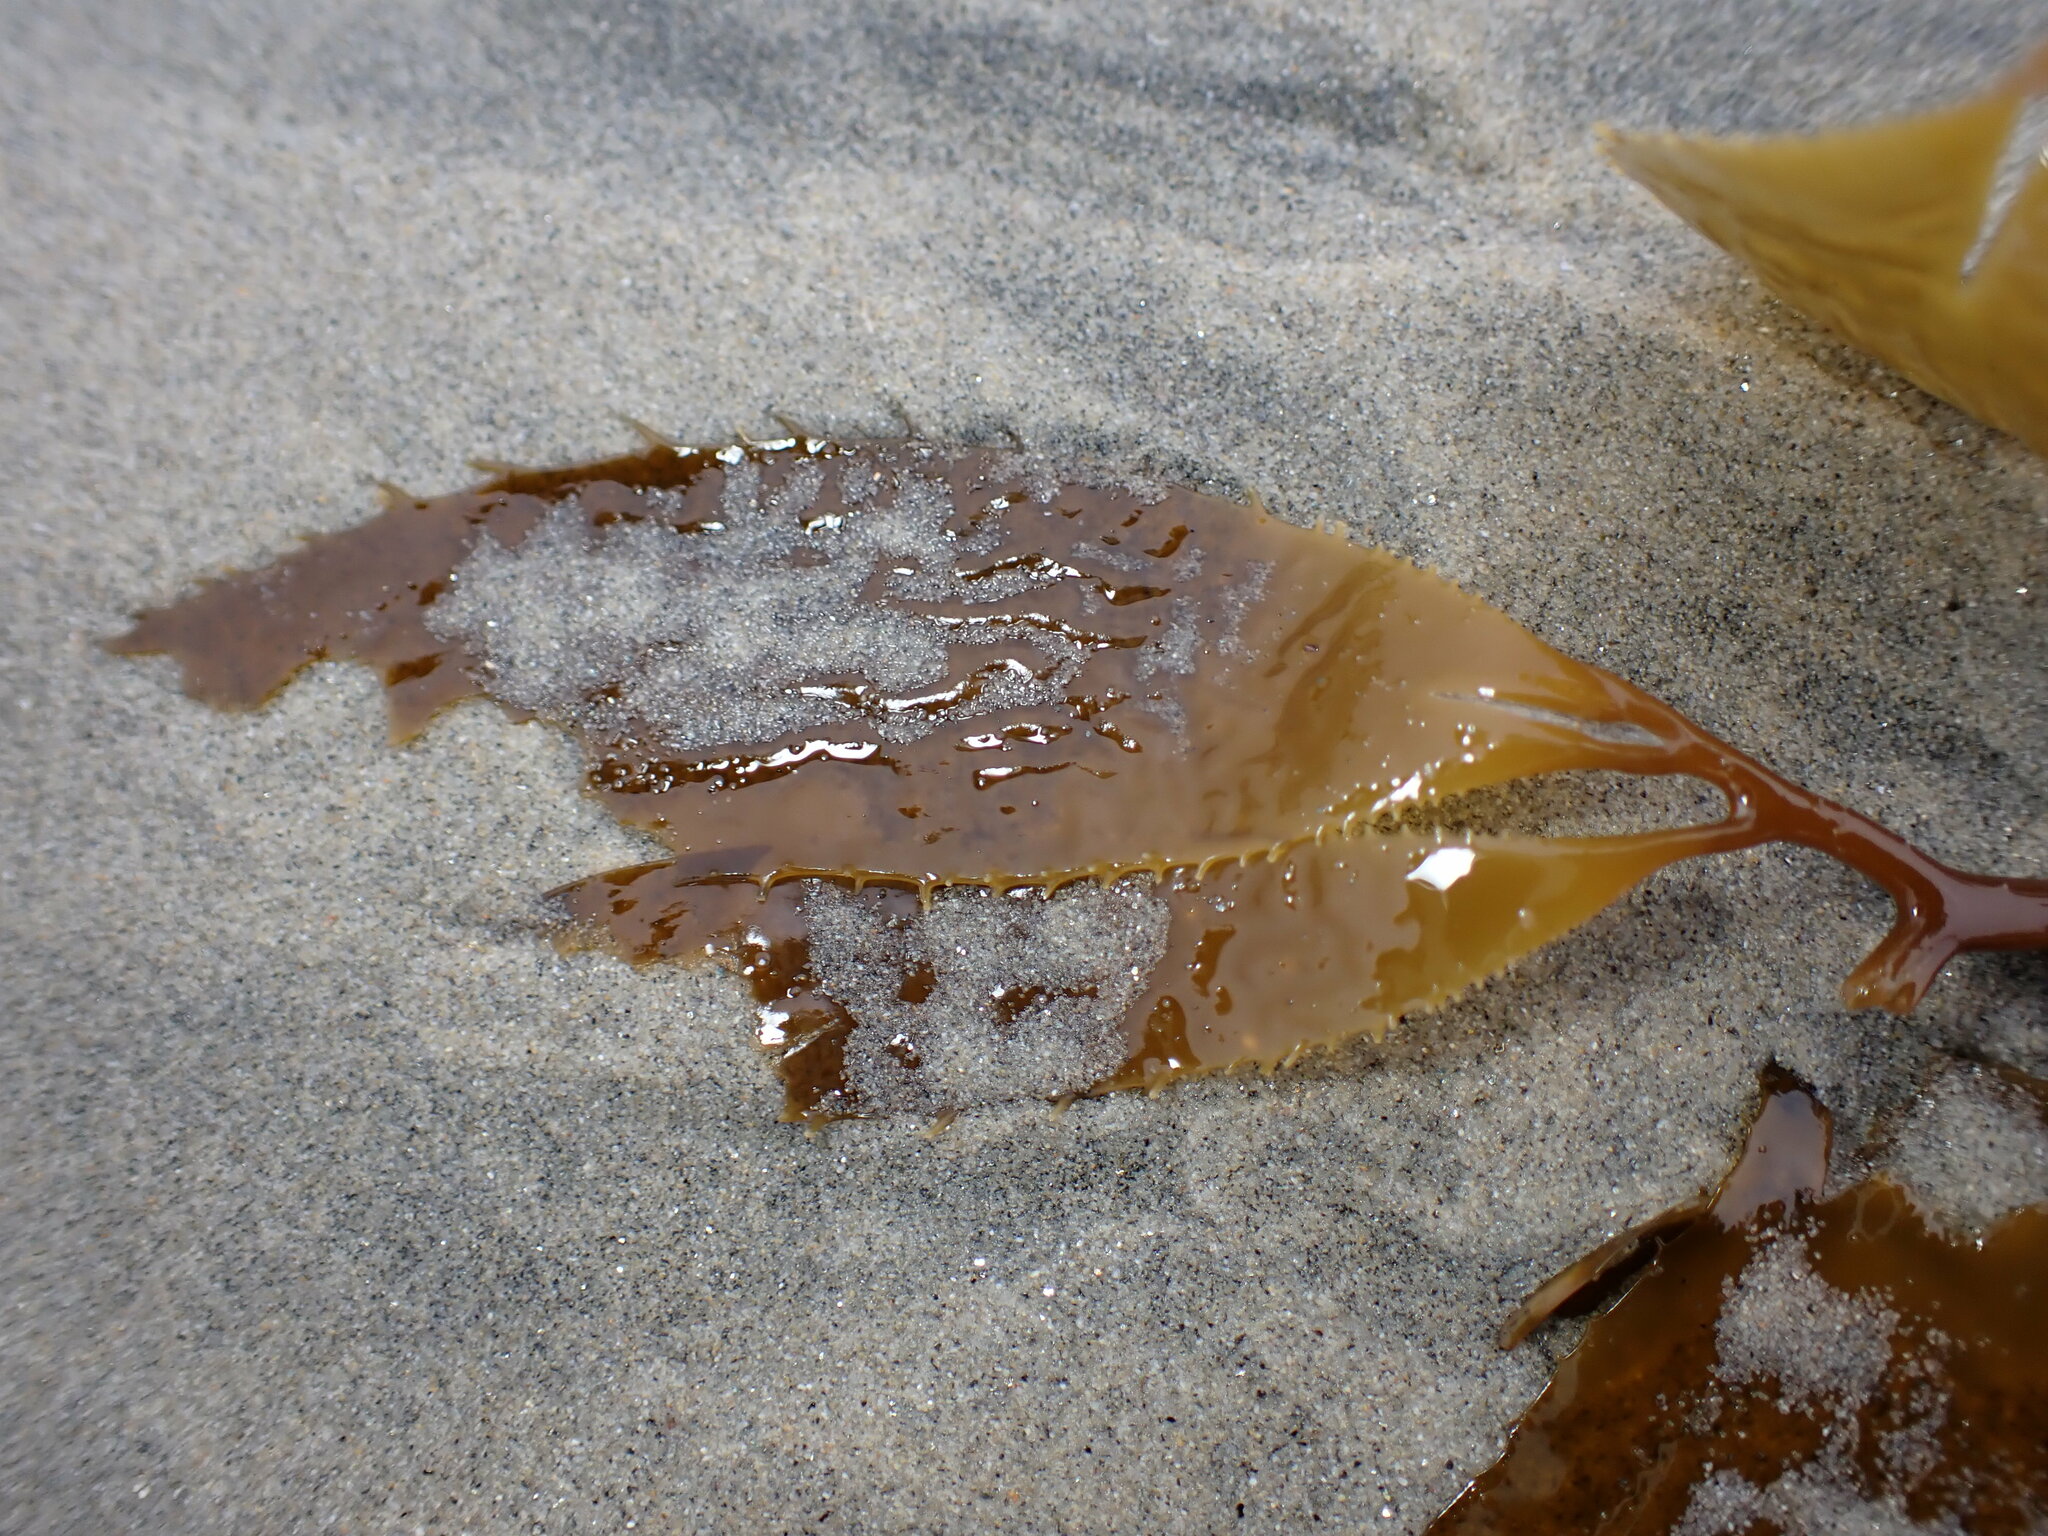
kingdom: Chromista
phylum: Ochrophyta
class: Phaeophyceae
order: Laminariales
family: Laminariaceae
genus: Macrocystis
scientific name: Macrocystis pyrifera
